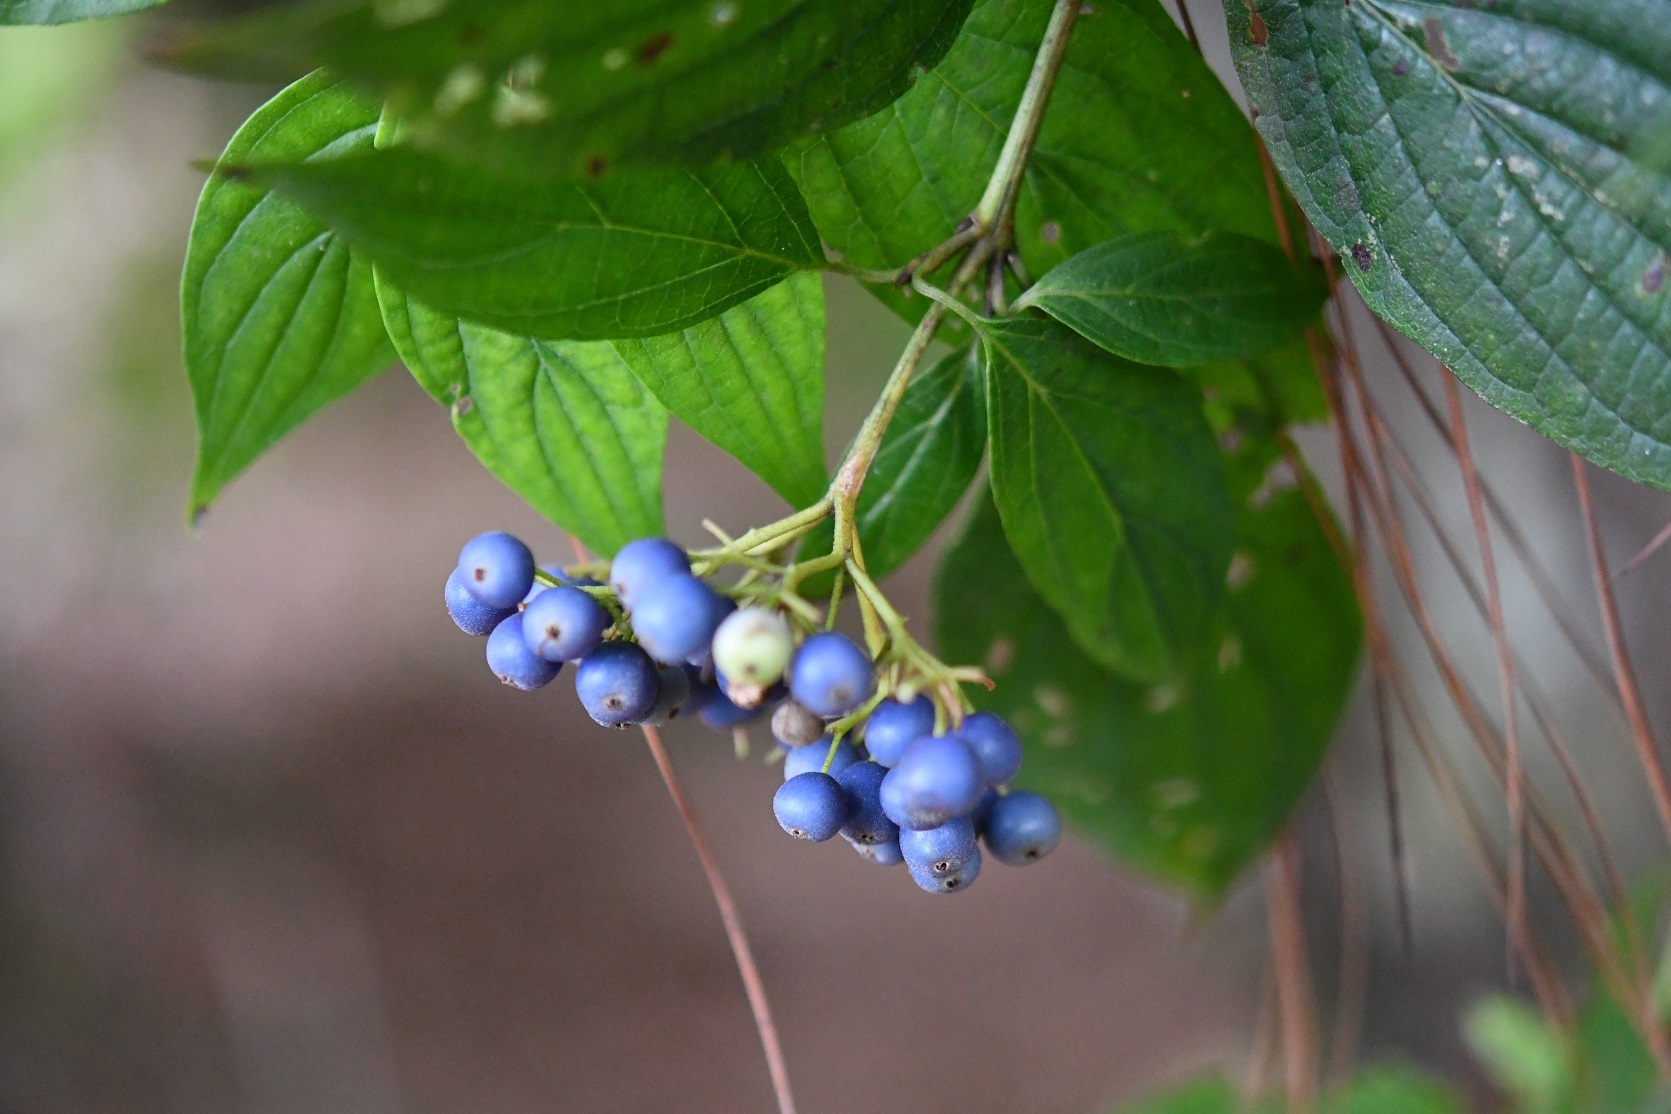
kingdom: Plantae
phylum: Tracheophyta
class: Magnoliopsida
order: Cornales
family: Cornaceae
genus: Cornus
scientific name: Cornus excelsa
